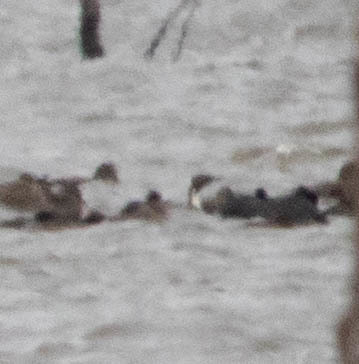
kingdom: Animalia
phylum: Chordata
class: Aves
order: Anseriformes
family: Anatidae
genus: Anas
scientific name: Anas acuta
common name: Northern pintail
